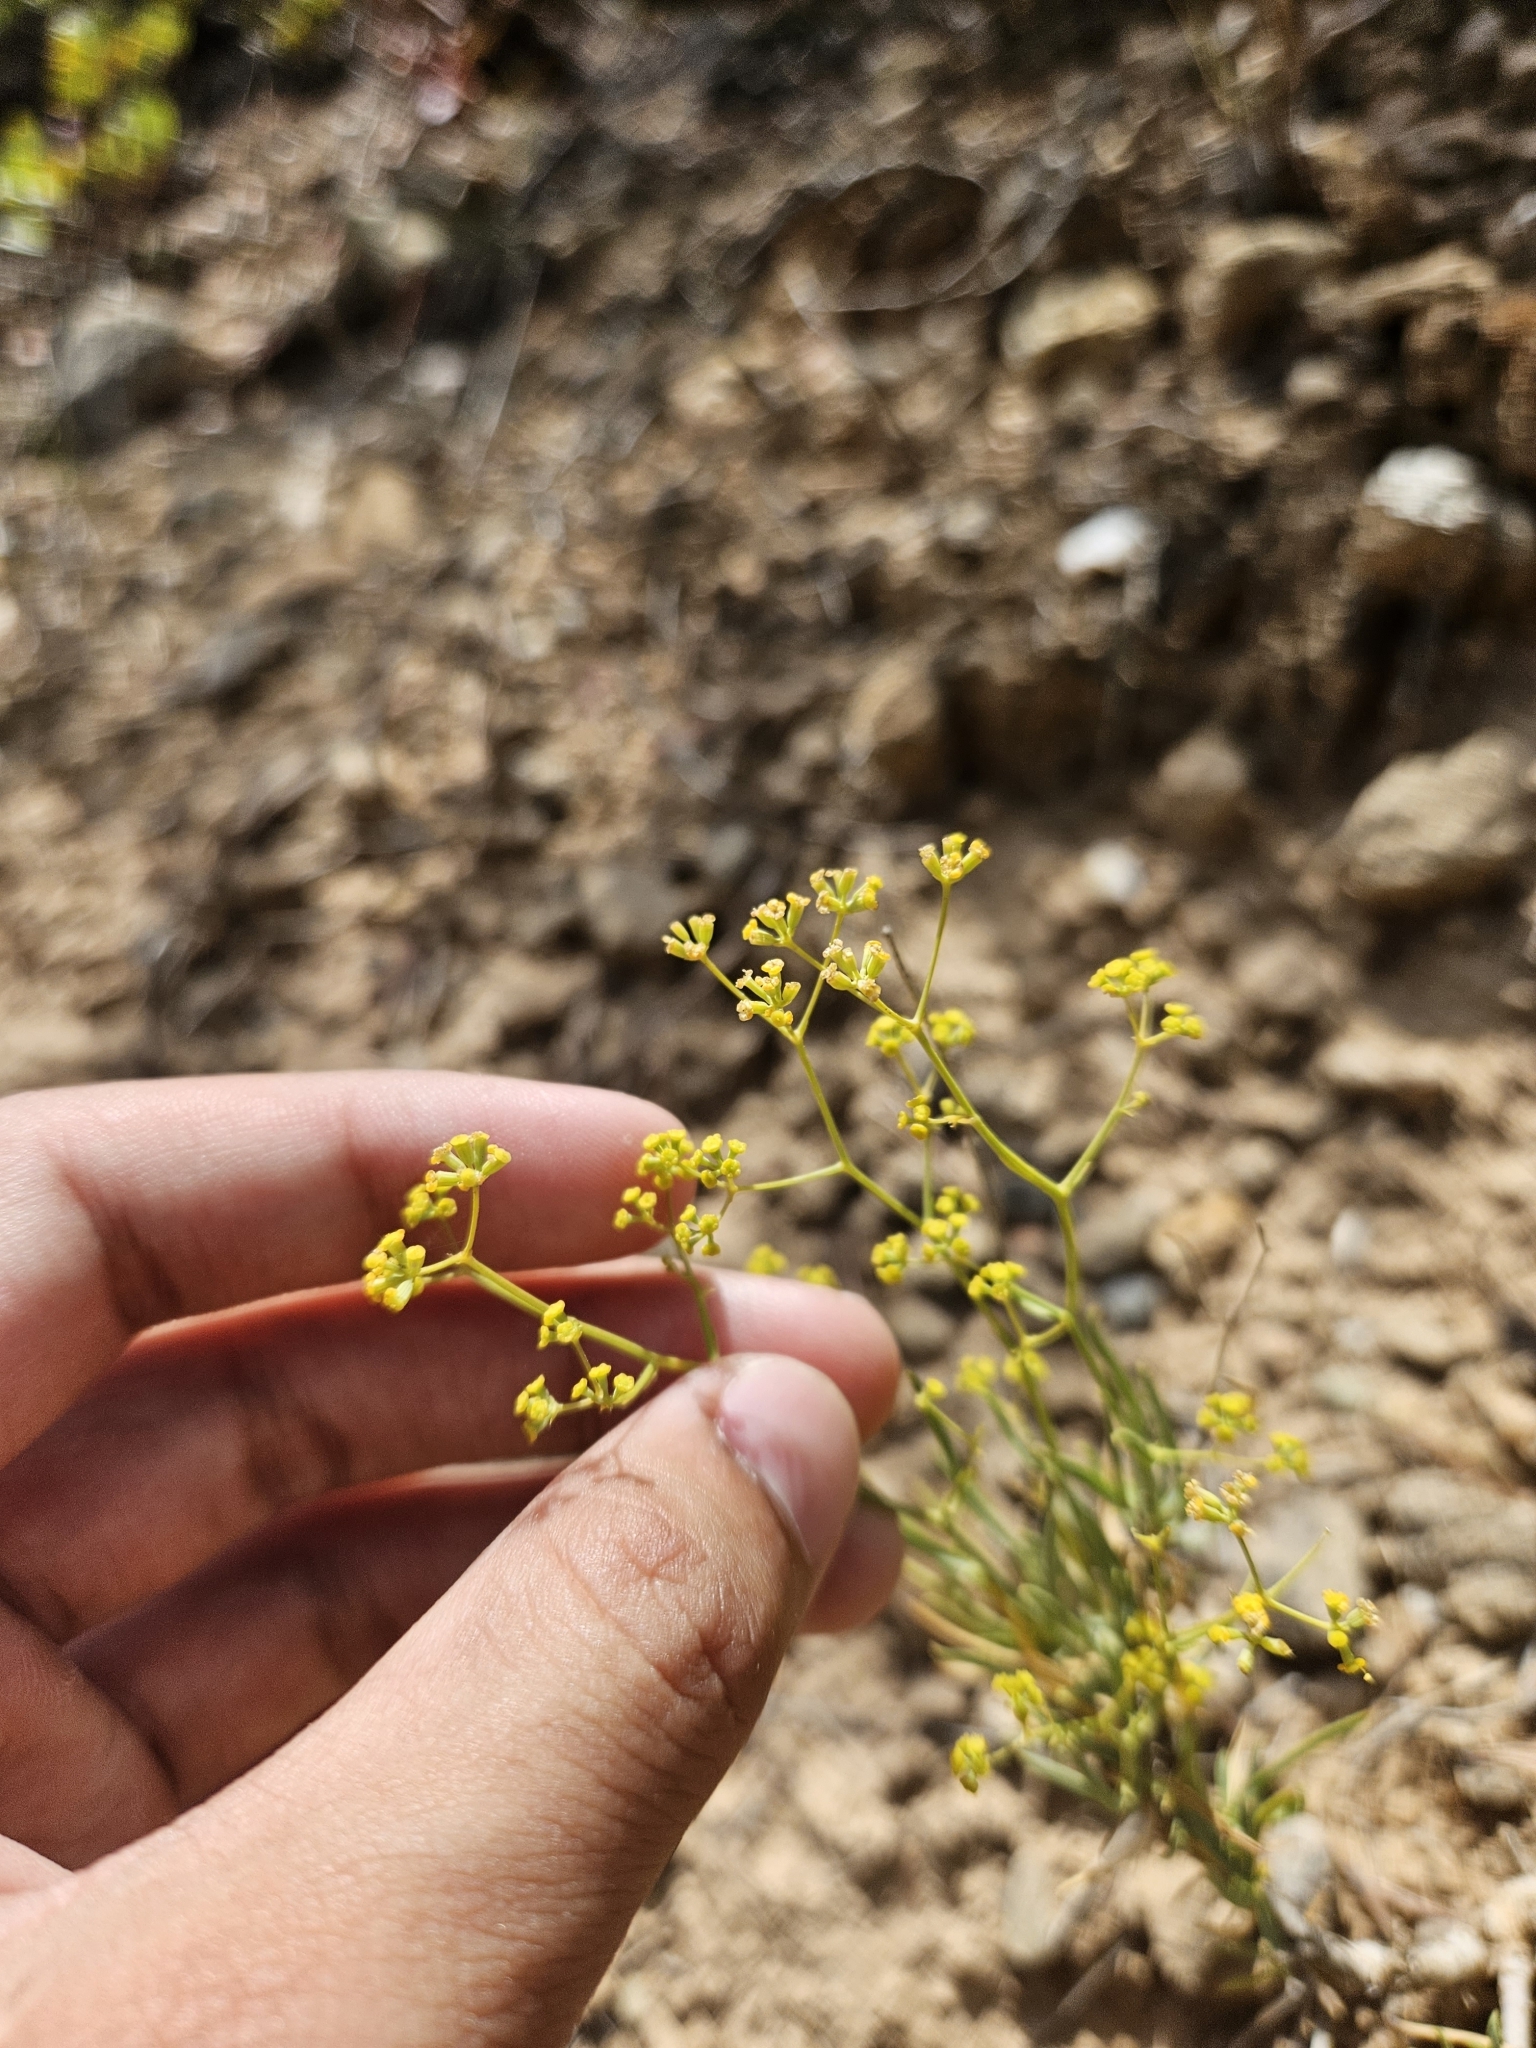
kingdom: Plantae
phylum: Tracheophyta
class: Magnoliopsida
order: Apiales
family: Apiaceae
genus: Bupleurum
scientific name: Bupleurum fruticescens
